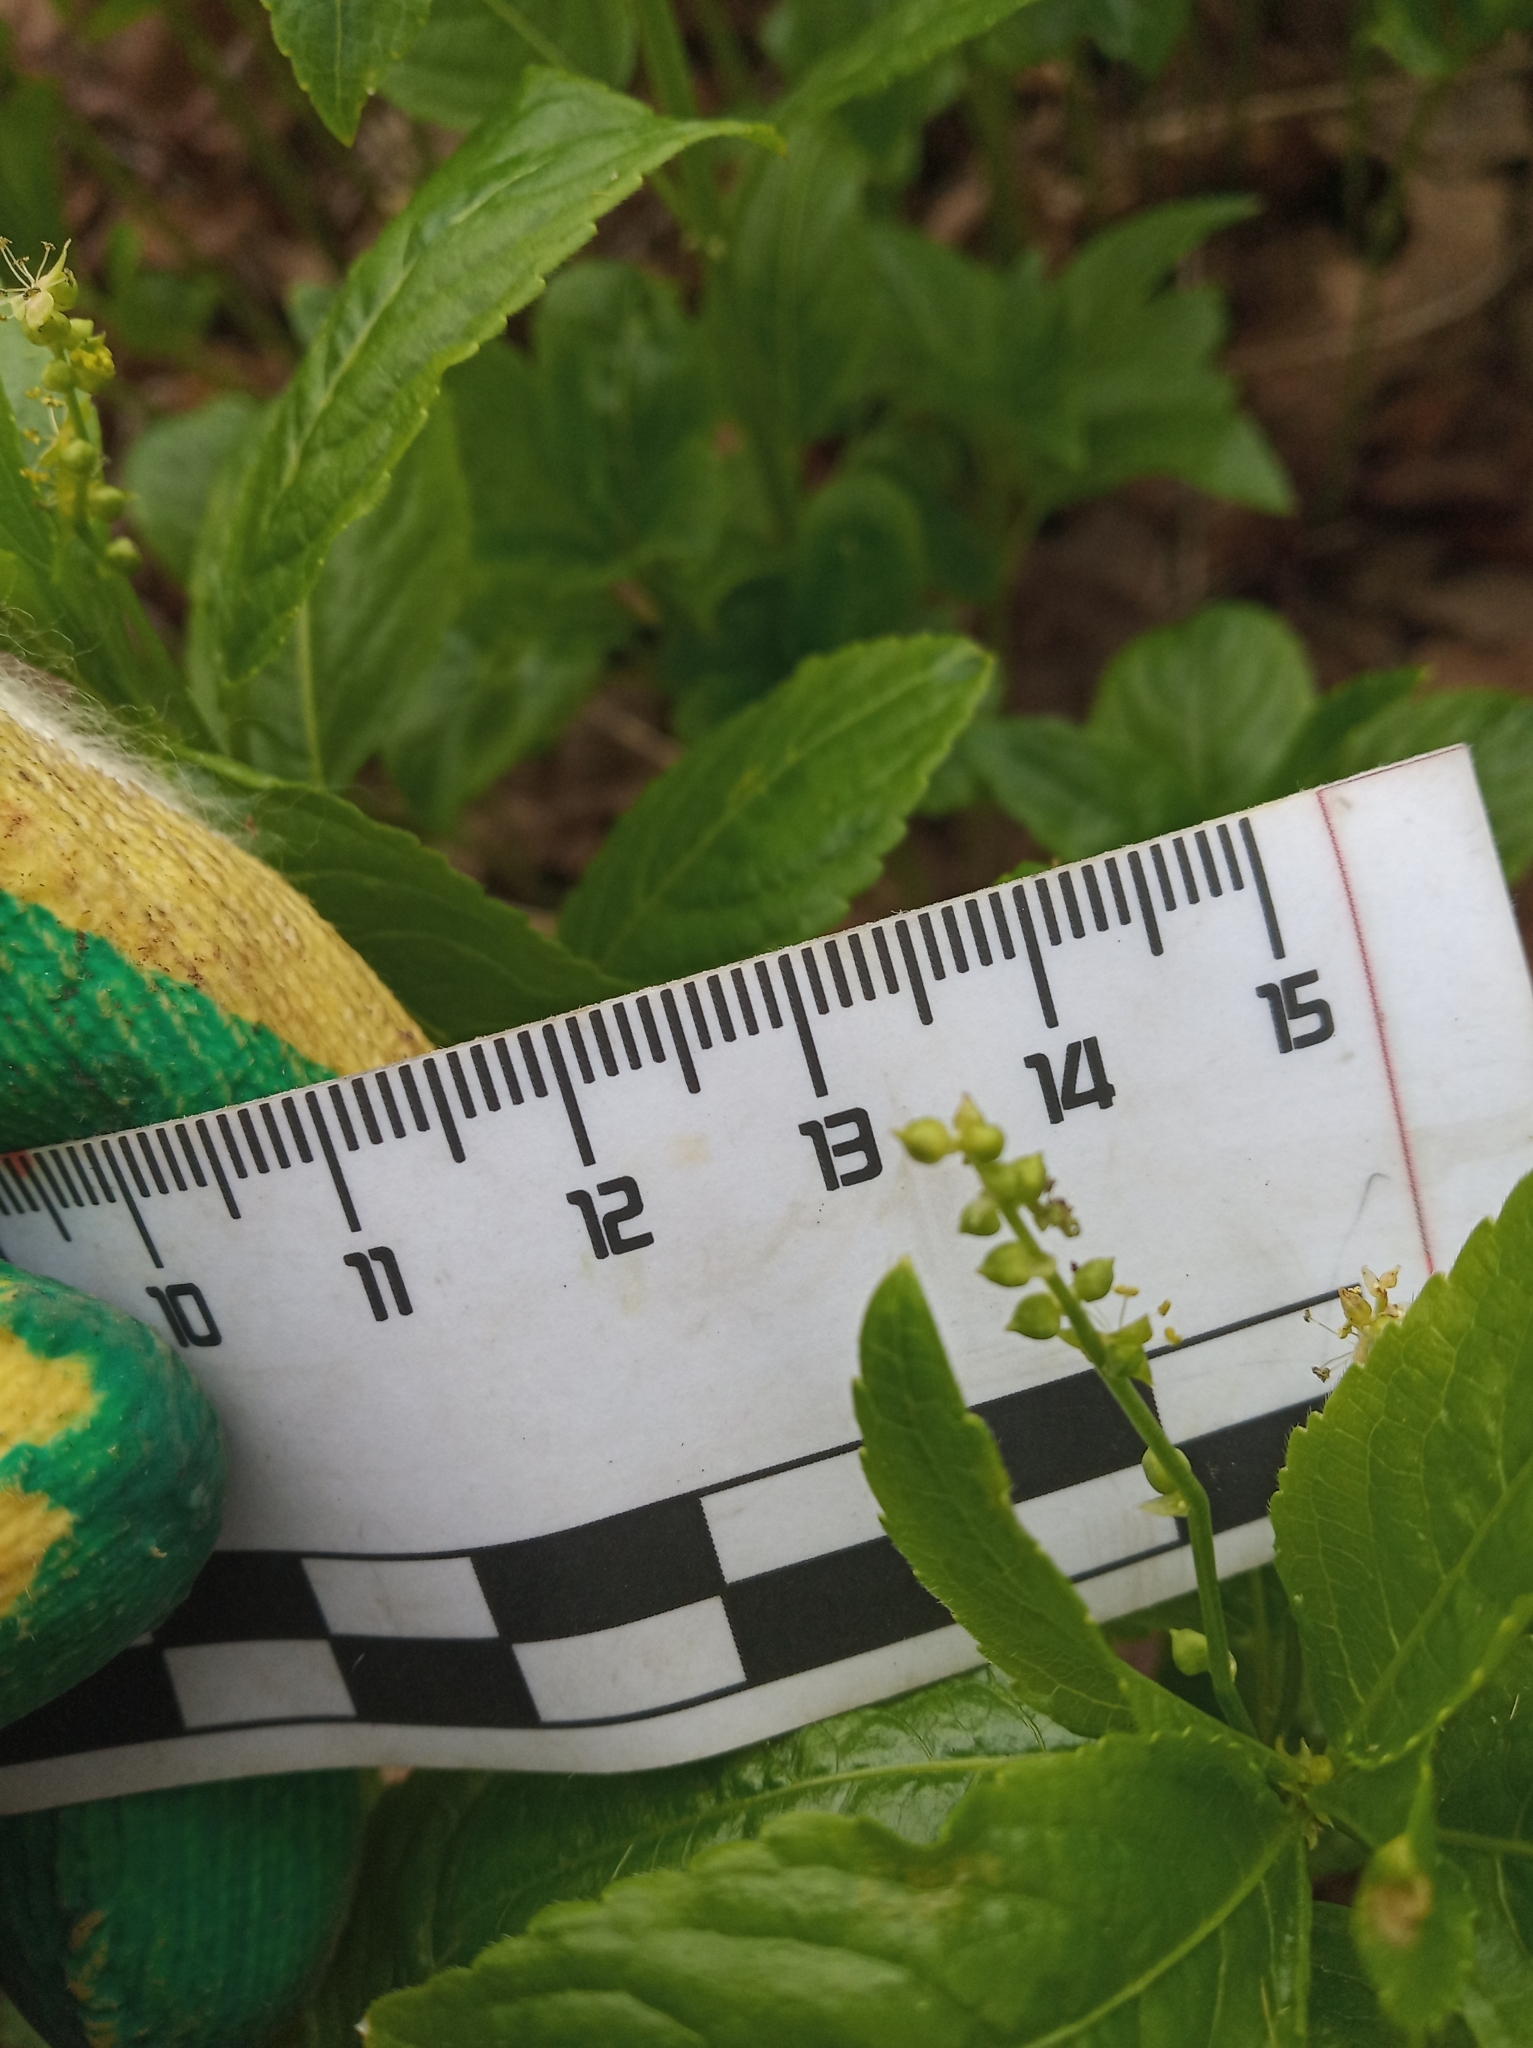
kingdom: Plantae
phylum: Tracheophyta
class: Magnoliopsida
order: Malpighiales
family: Euphorbiaceae
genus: Mercurialis
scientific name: Mercurialis perennis
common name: Dog mercury
